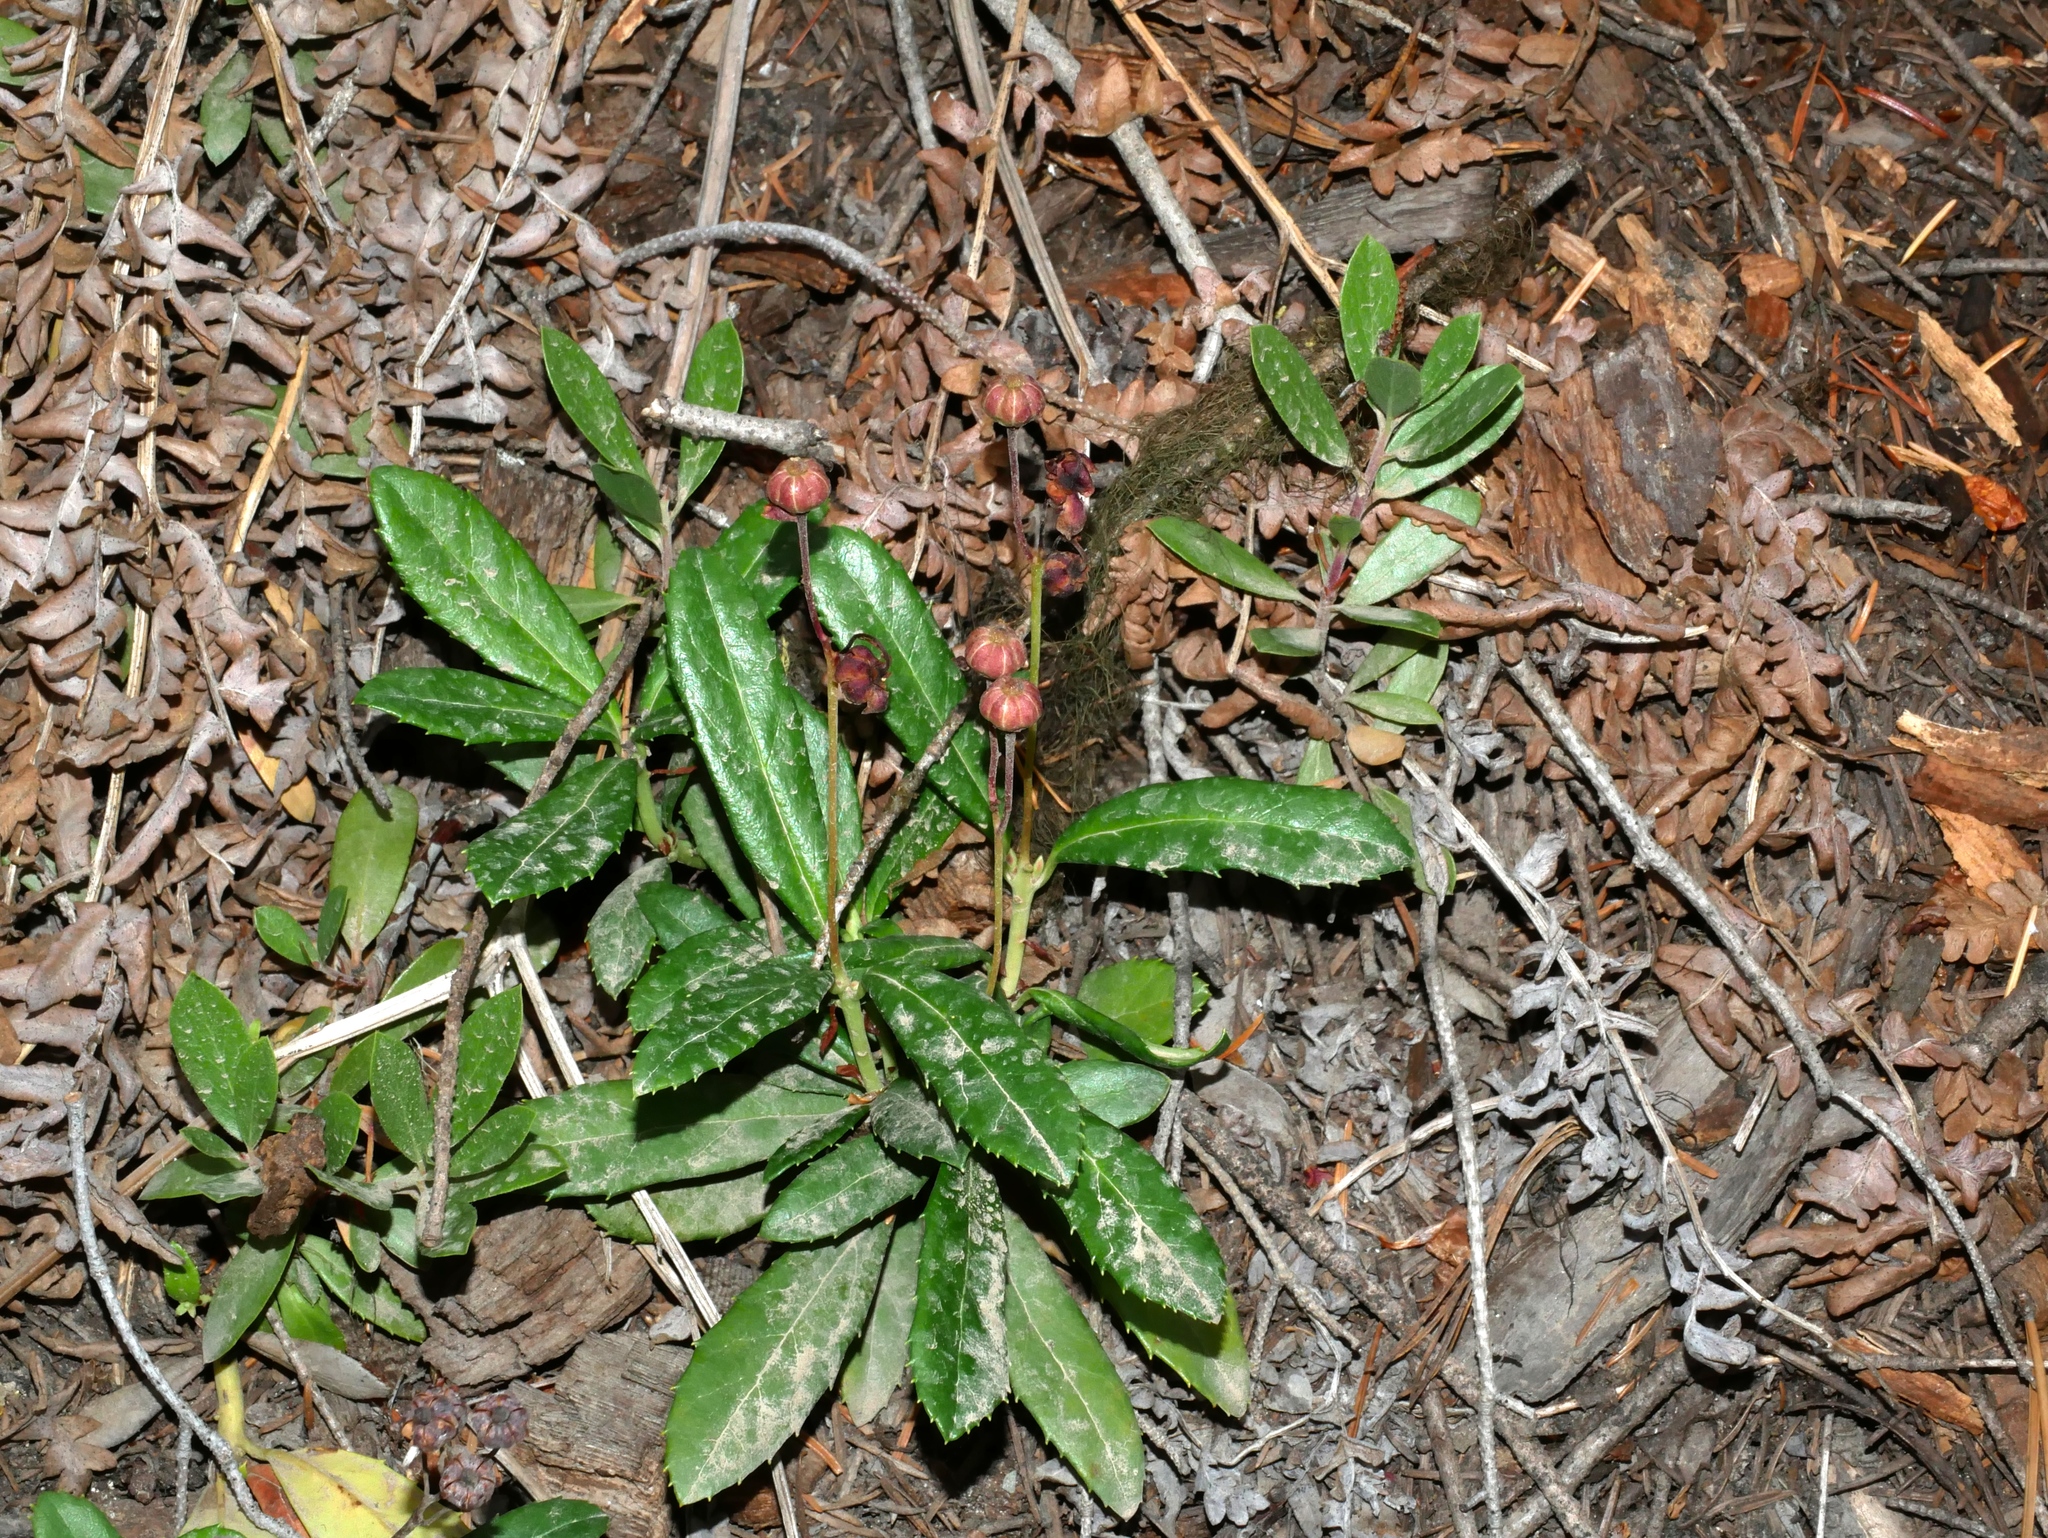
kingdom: Plantae
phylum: Tracheophyta
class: Magnoliopsida
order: Ericales
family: Ericaceae
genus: Chimaphila
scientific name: Chimaphila umbellata
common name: Pipsissewa
